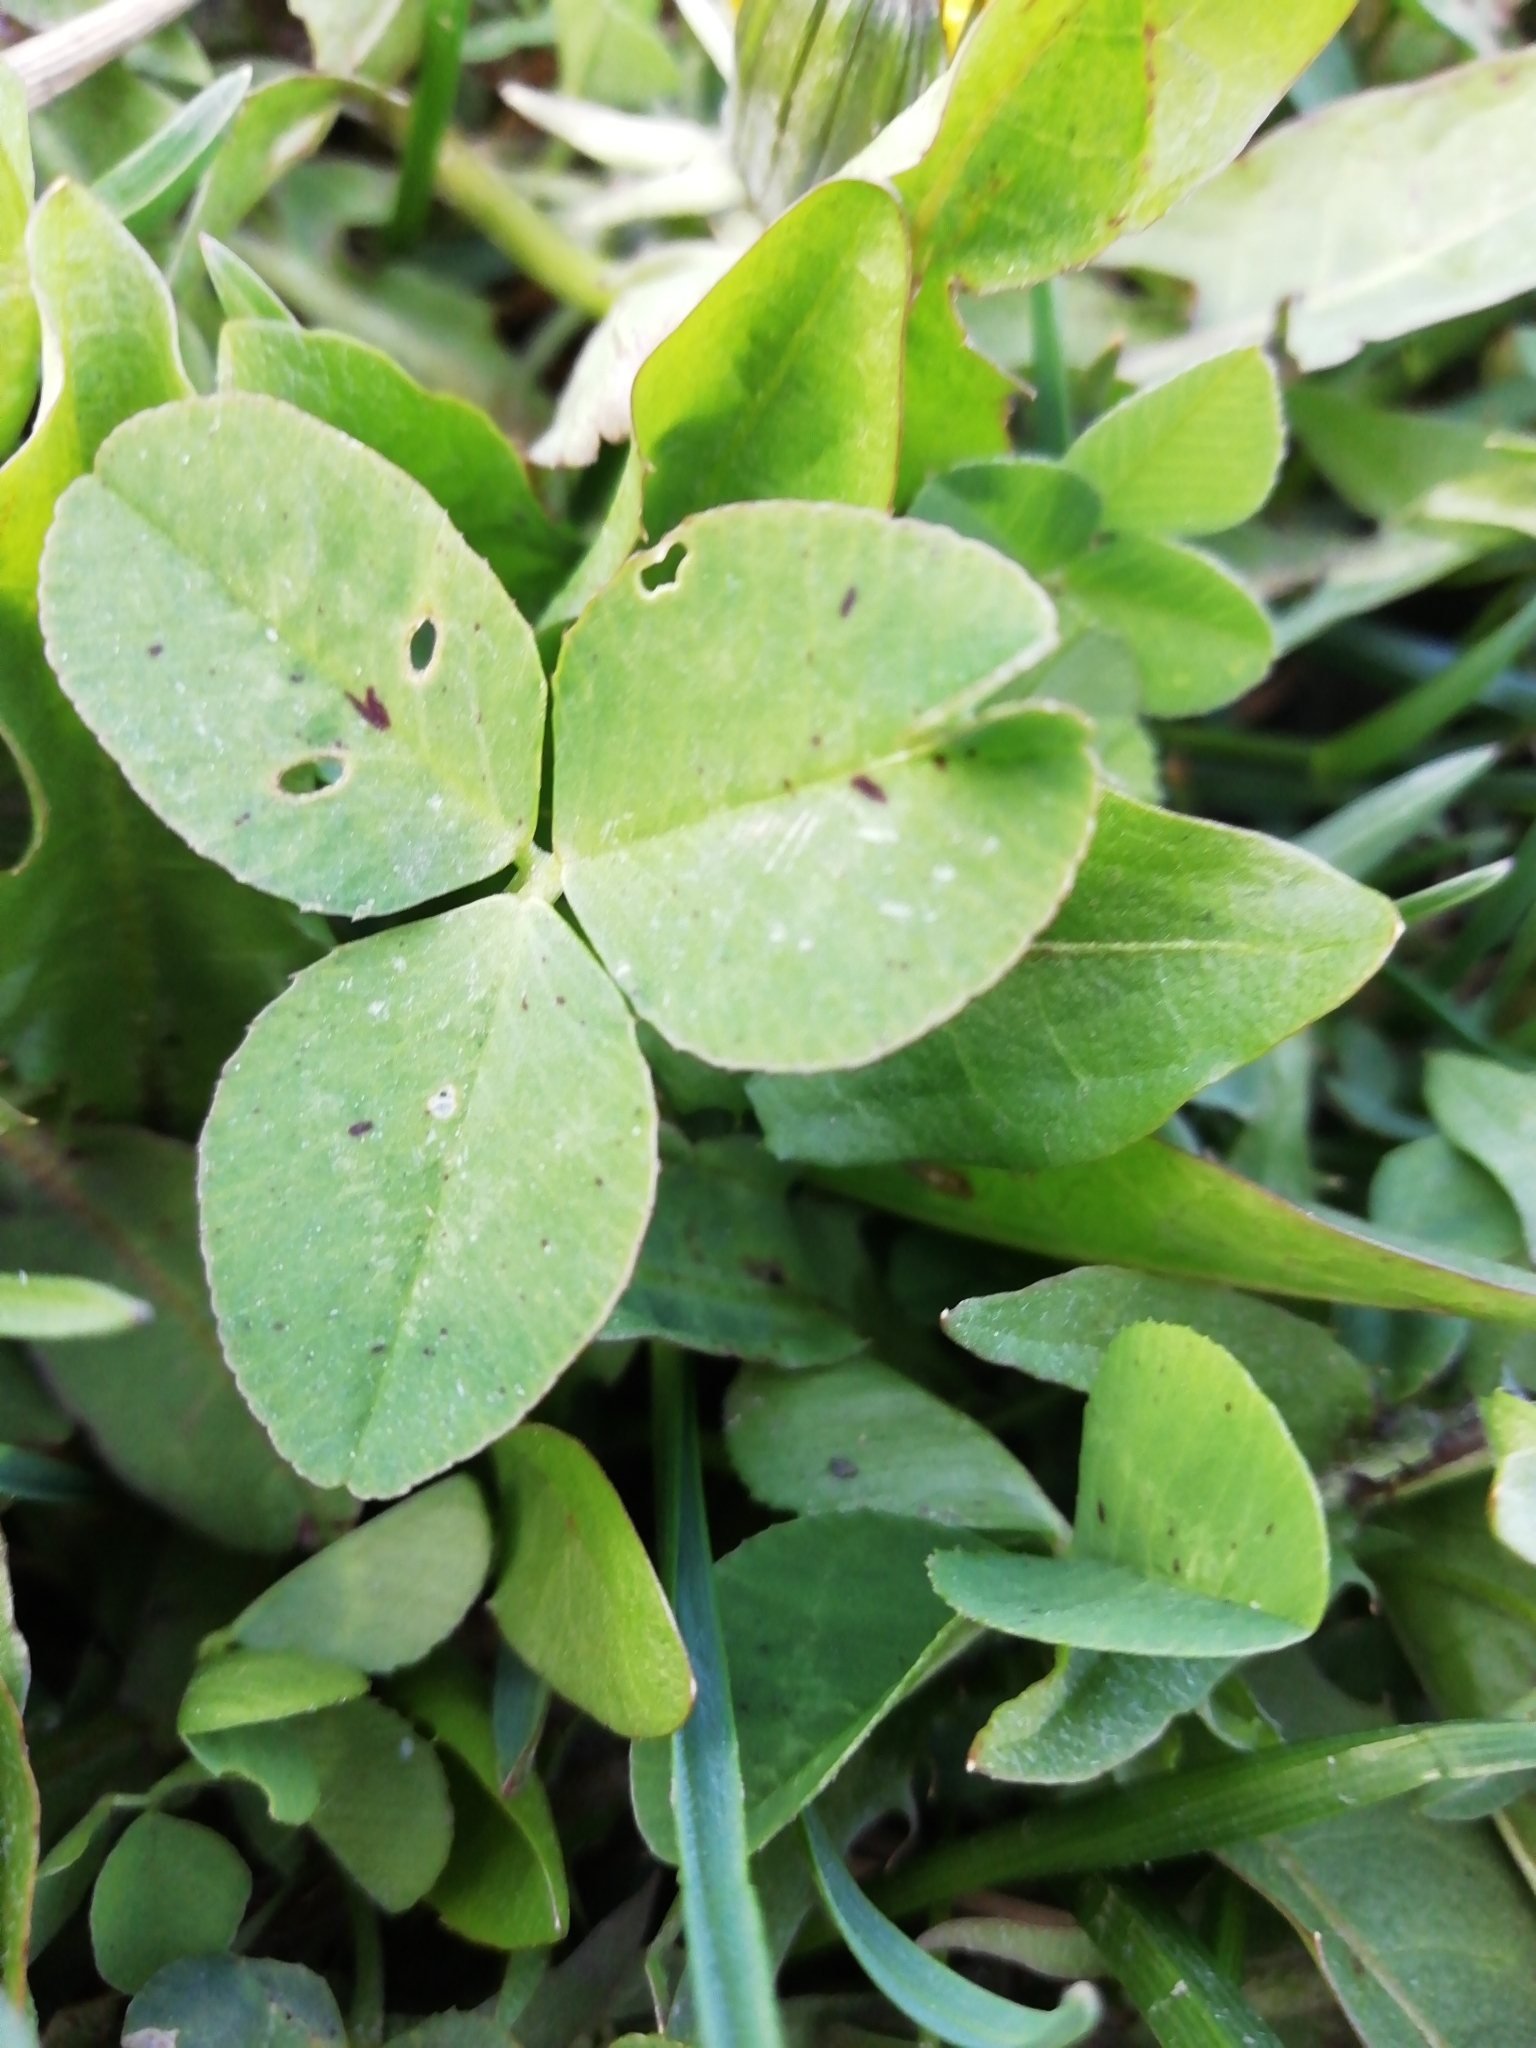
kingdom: Plantae
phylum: Tracheophyta
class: Magnoliopsida
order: Fabales
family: Fabaceae
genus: Trifolium
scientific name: Trifolium repens
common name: White clover
